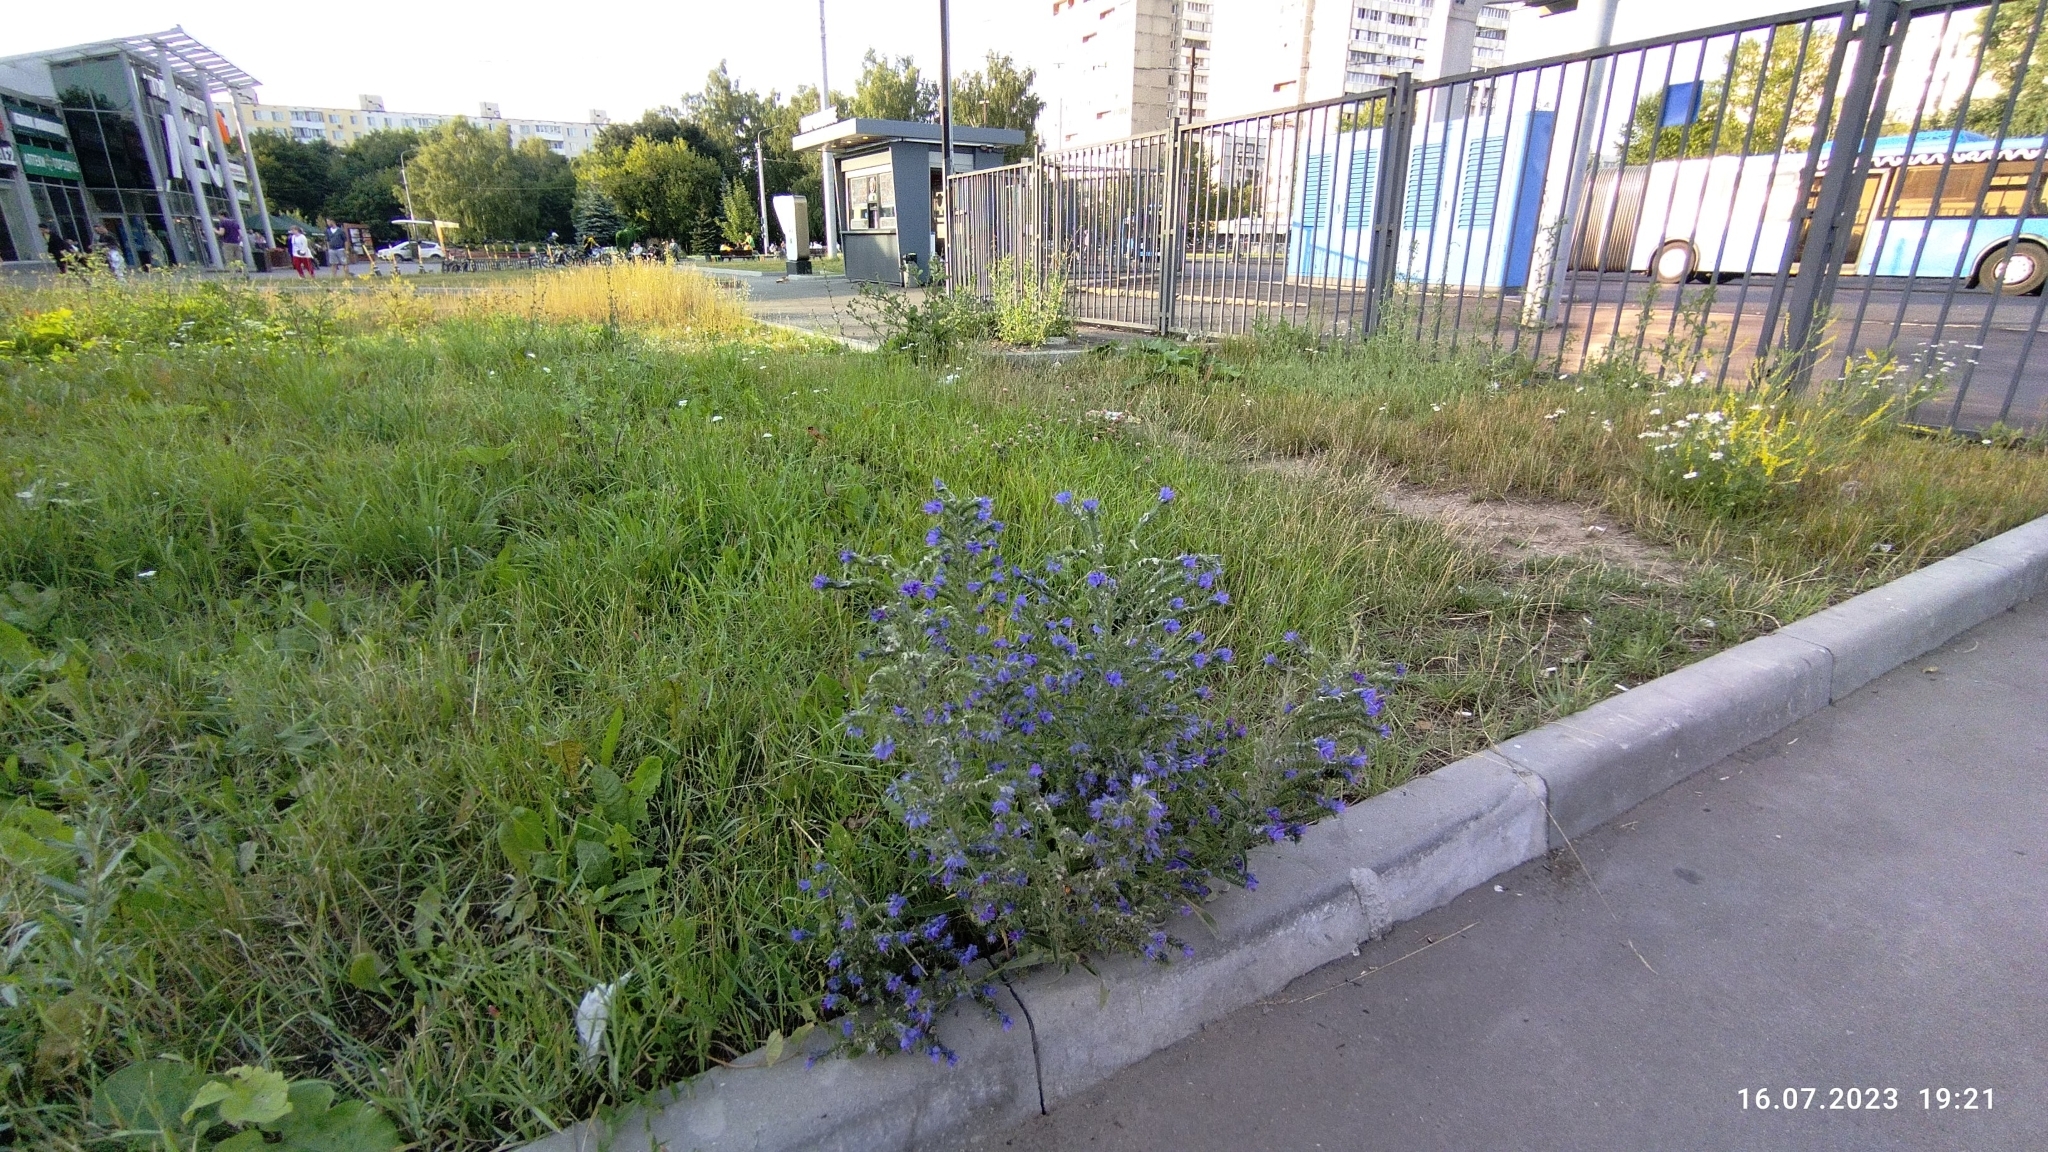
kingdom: Plantae
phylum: Tracheophyta
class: Magnoliopsida
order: Boraginales
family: Boraginaceae
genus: Echium
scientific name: Echium vulgare
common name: Common viper's bugloss
